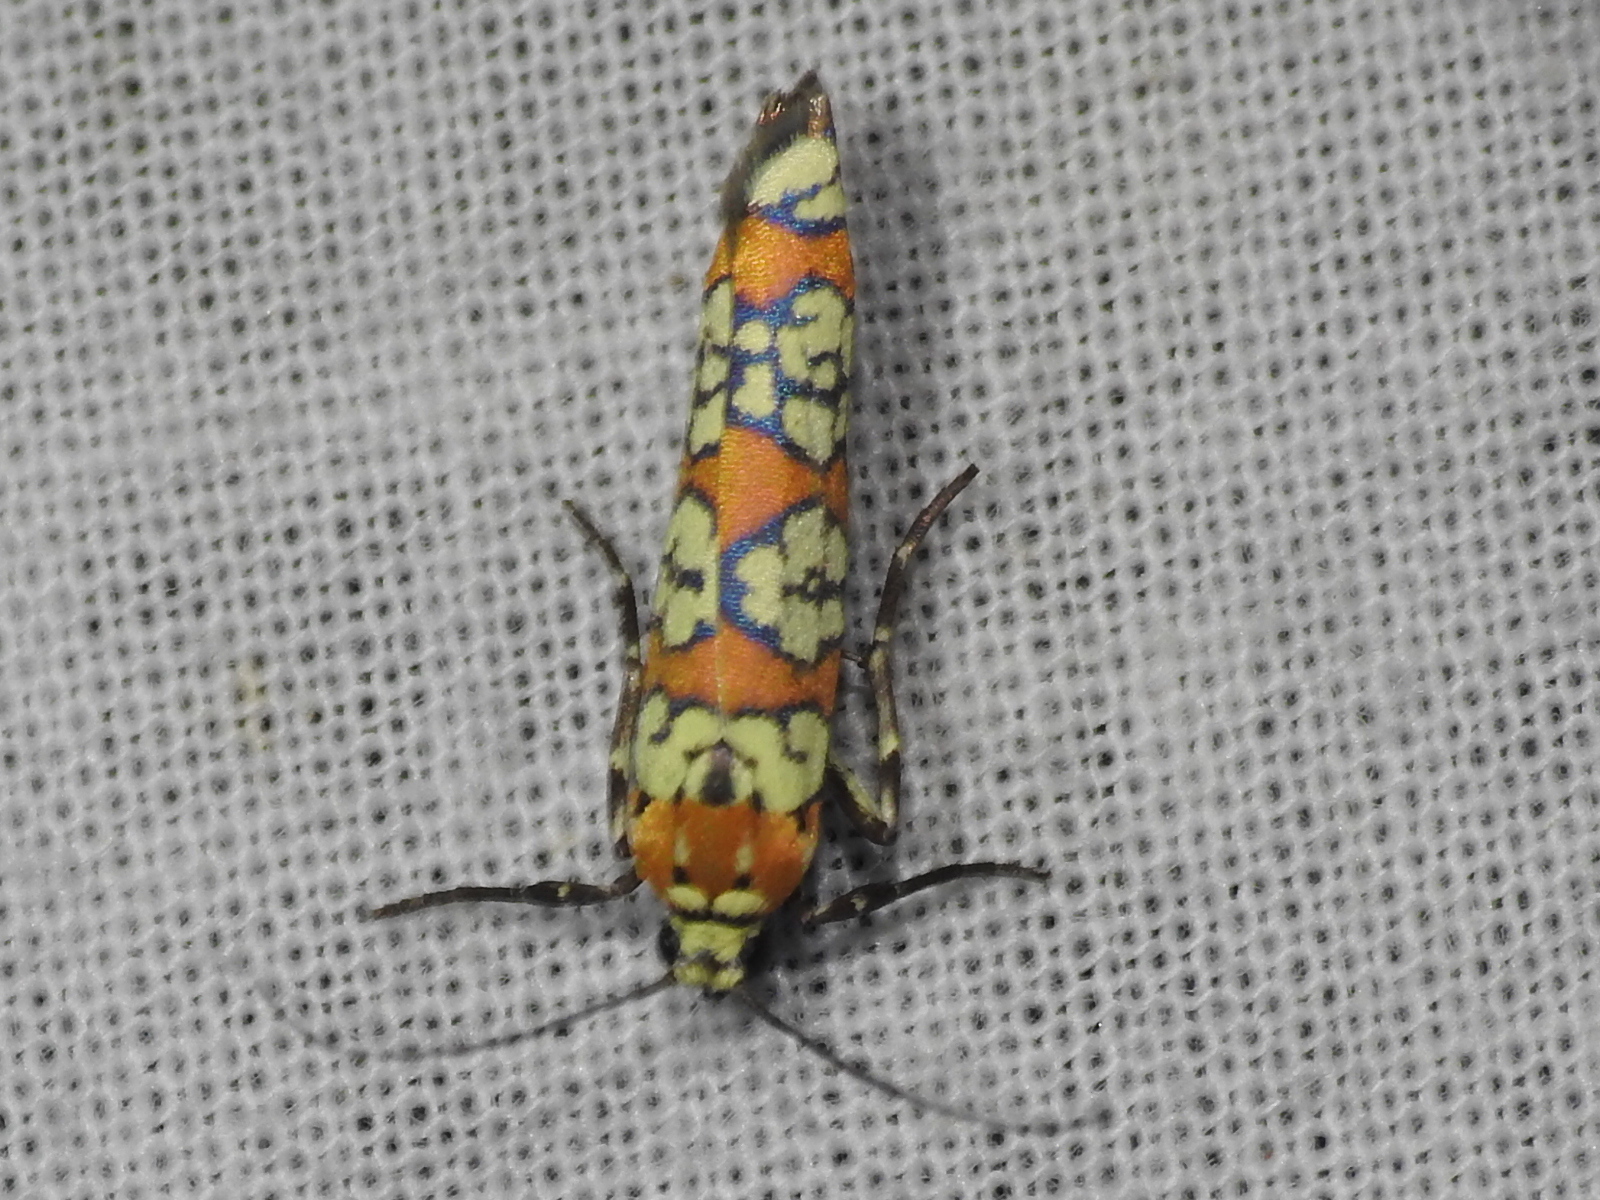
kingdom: Animalia
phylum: Arthropoda
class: Insecta
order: Lepidoptera
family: Attevidae
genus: Atteva
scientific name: Atteva punctella
